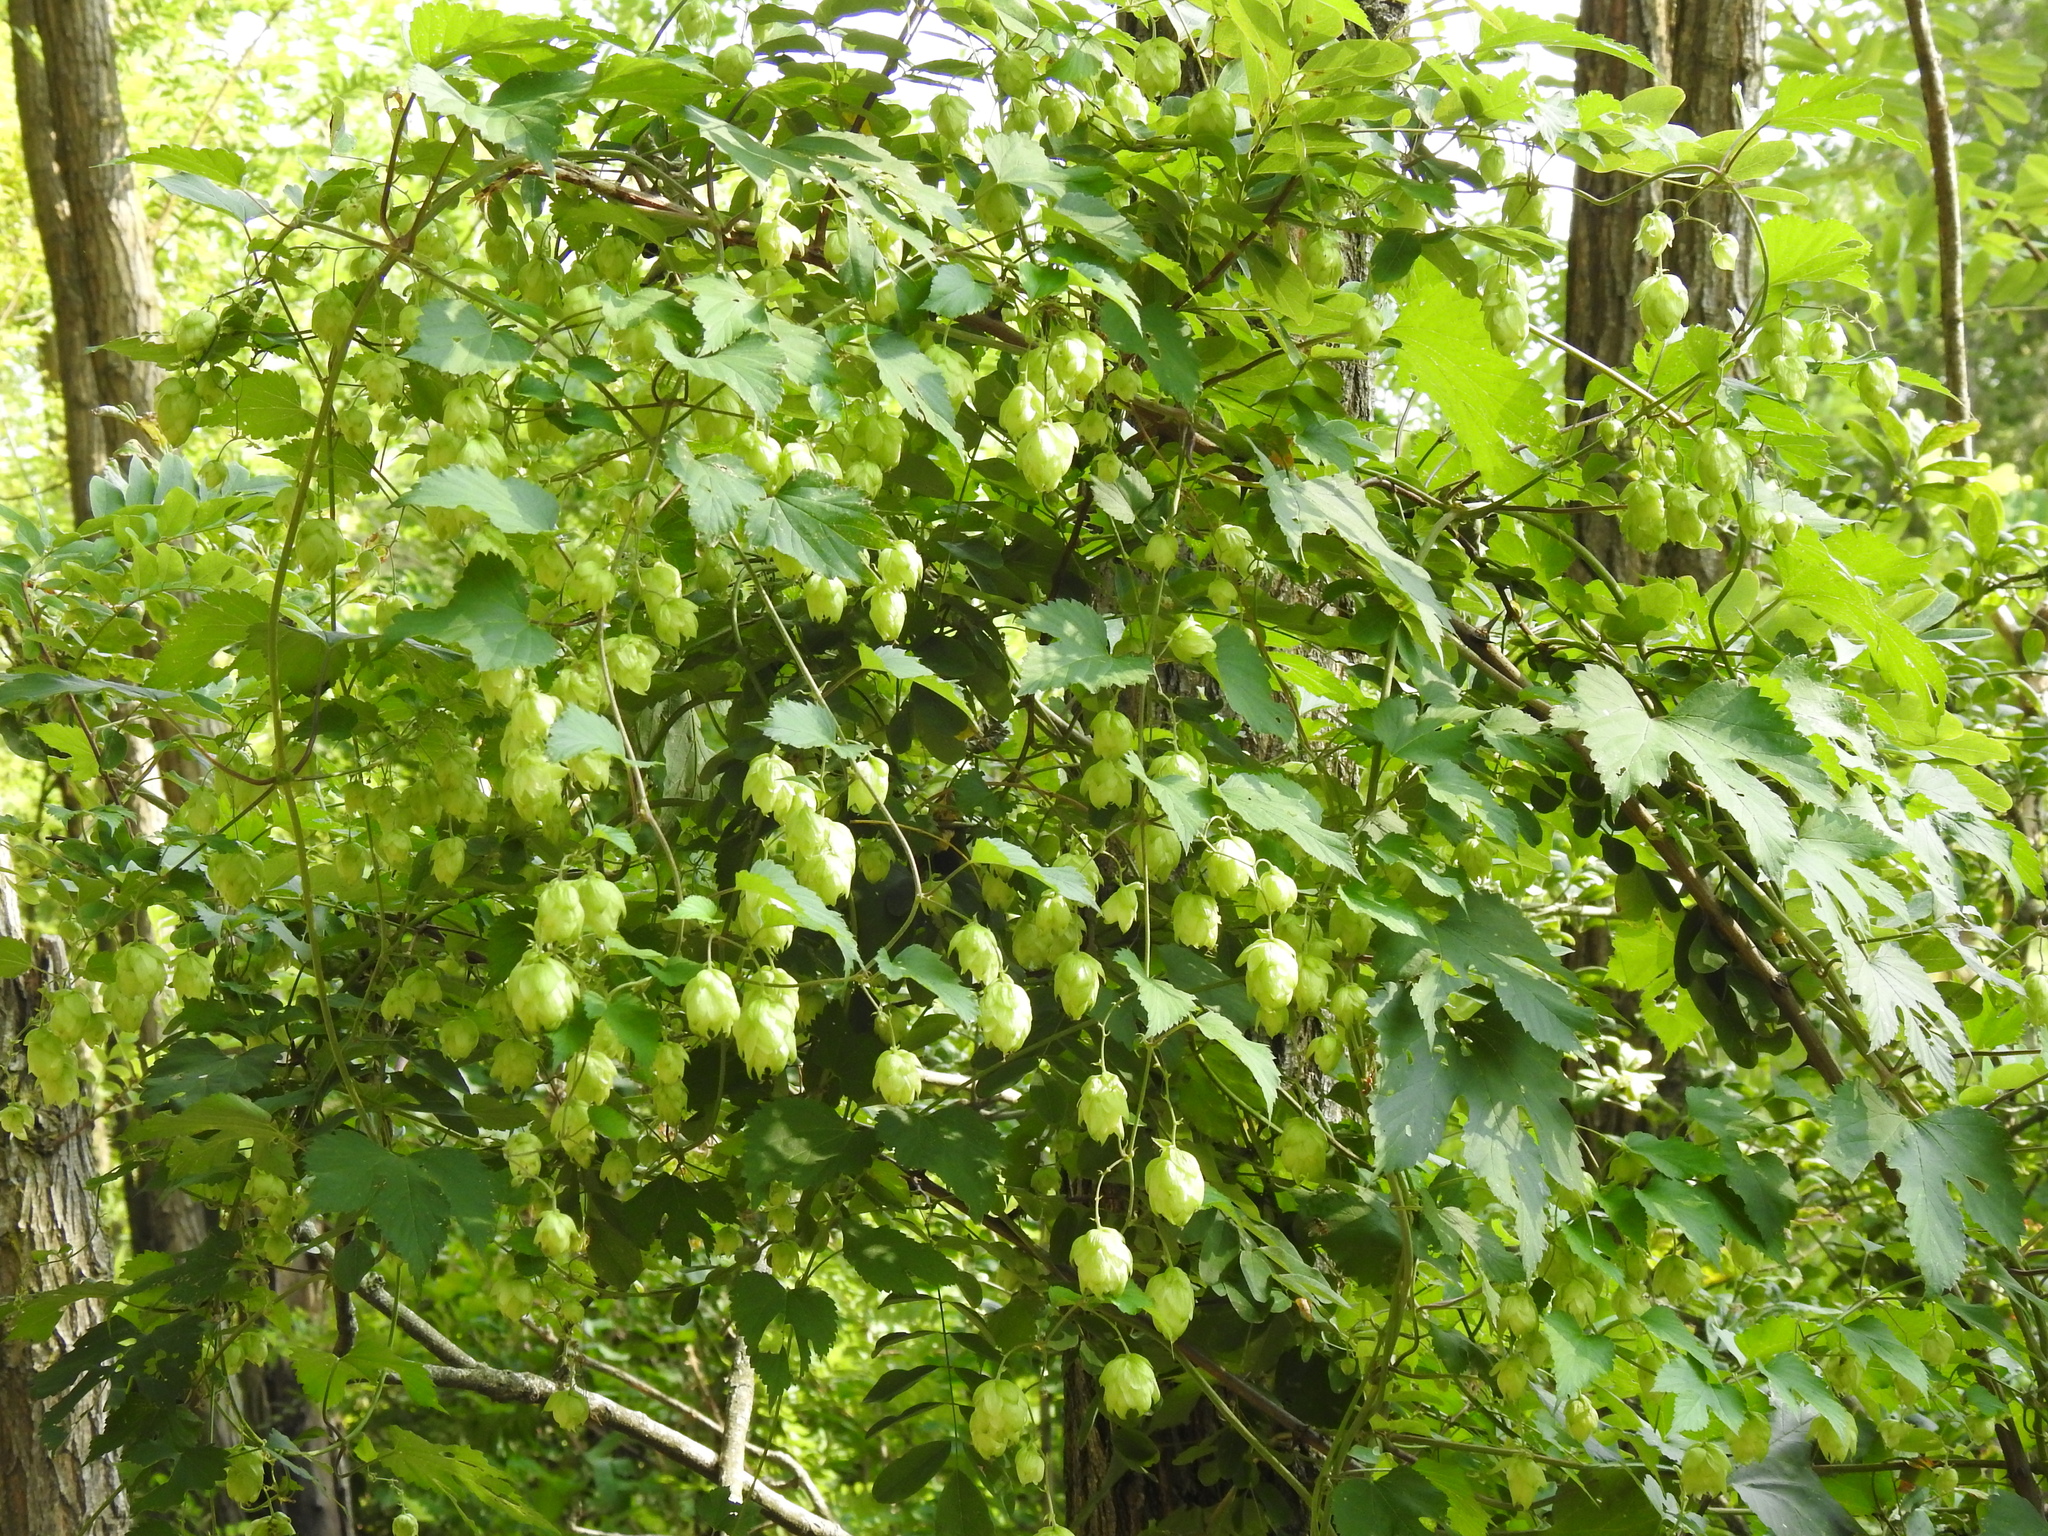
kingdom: Plantae
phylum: Tracheophyta
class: Magnoliopsida
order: Rosales
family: Cannabaceae
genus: Humulus
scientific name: Humulus lupulus
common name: Hop
